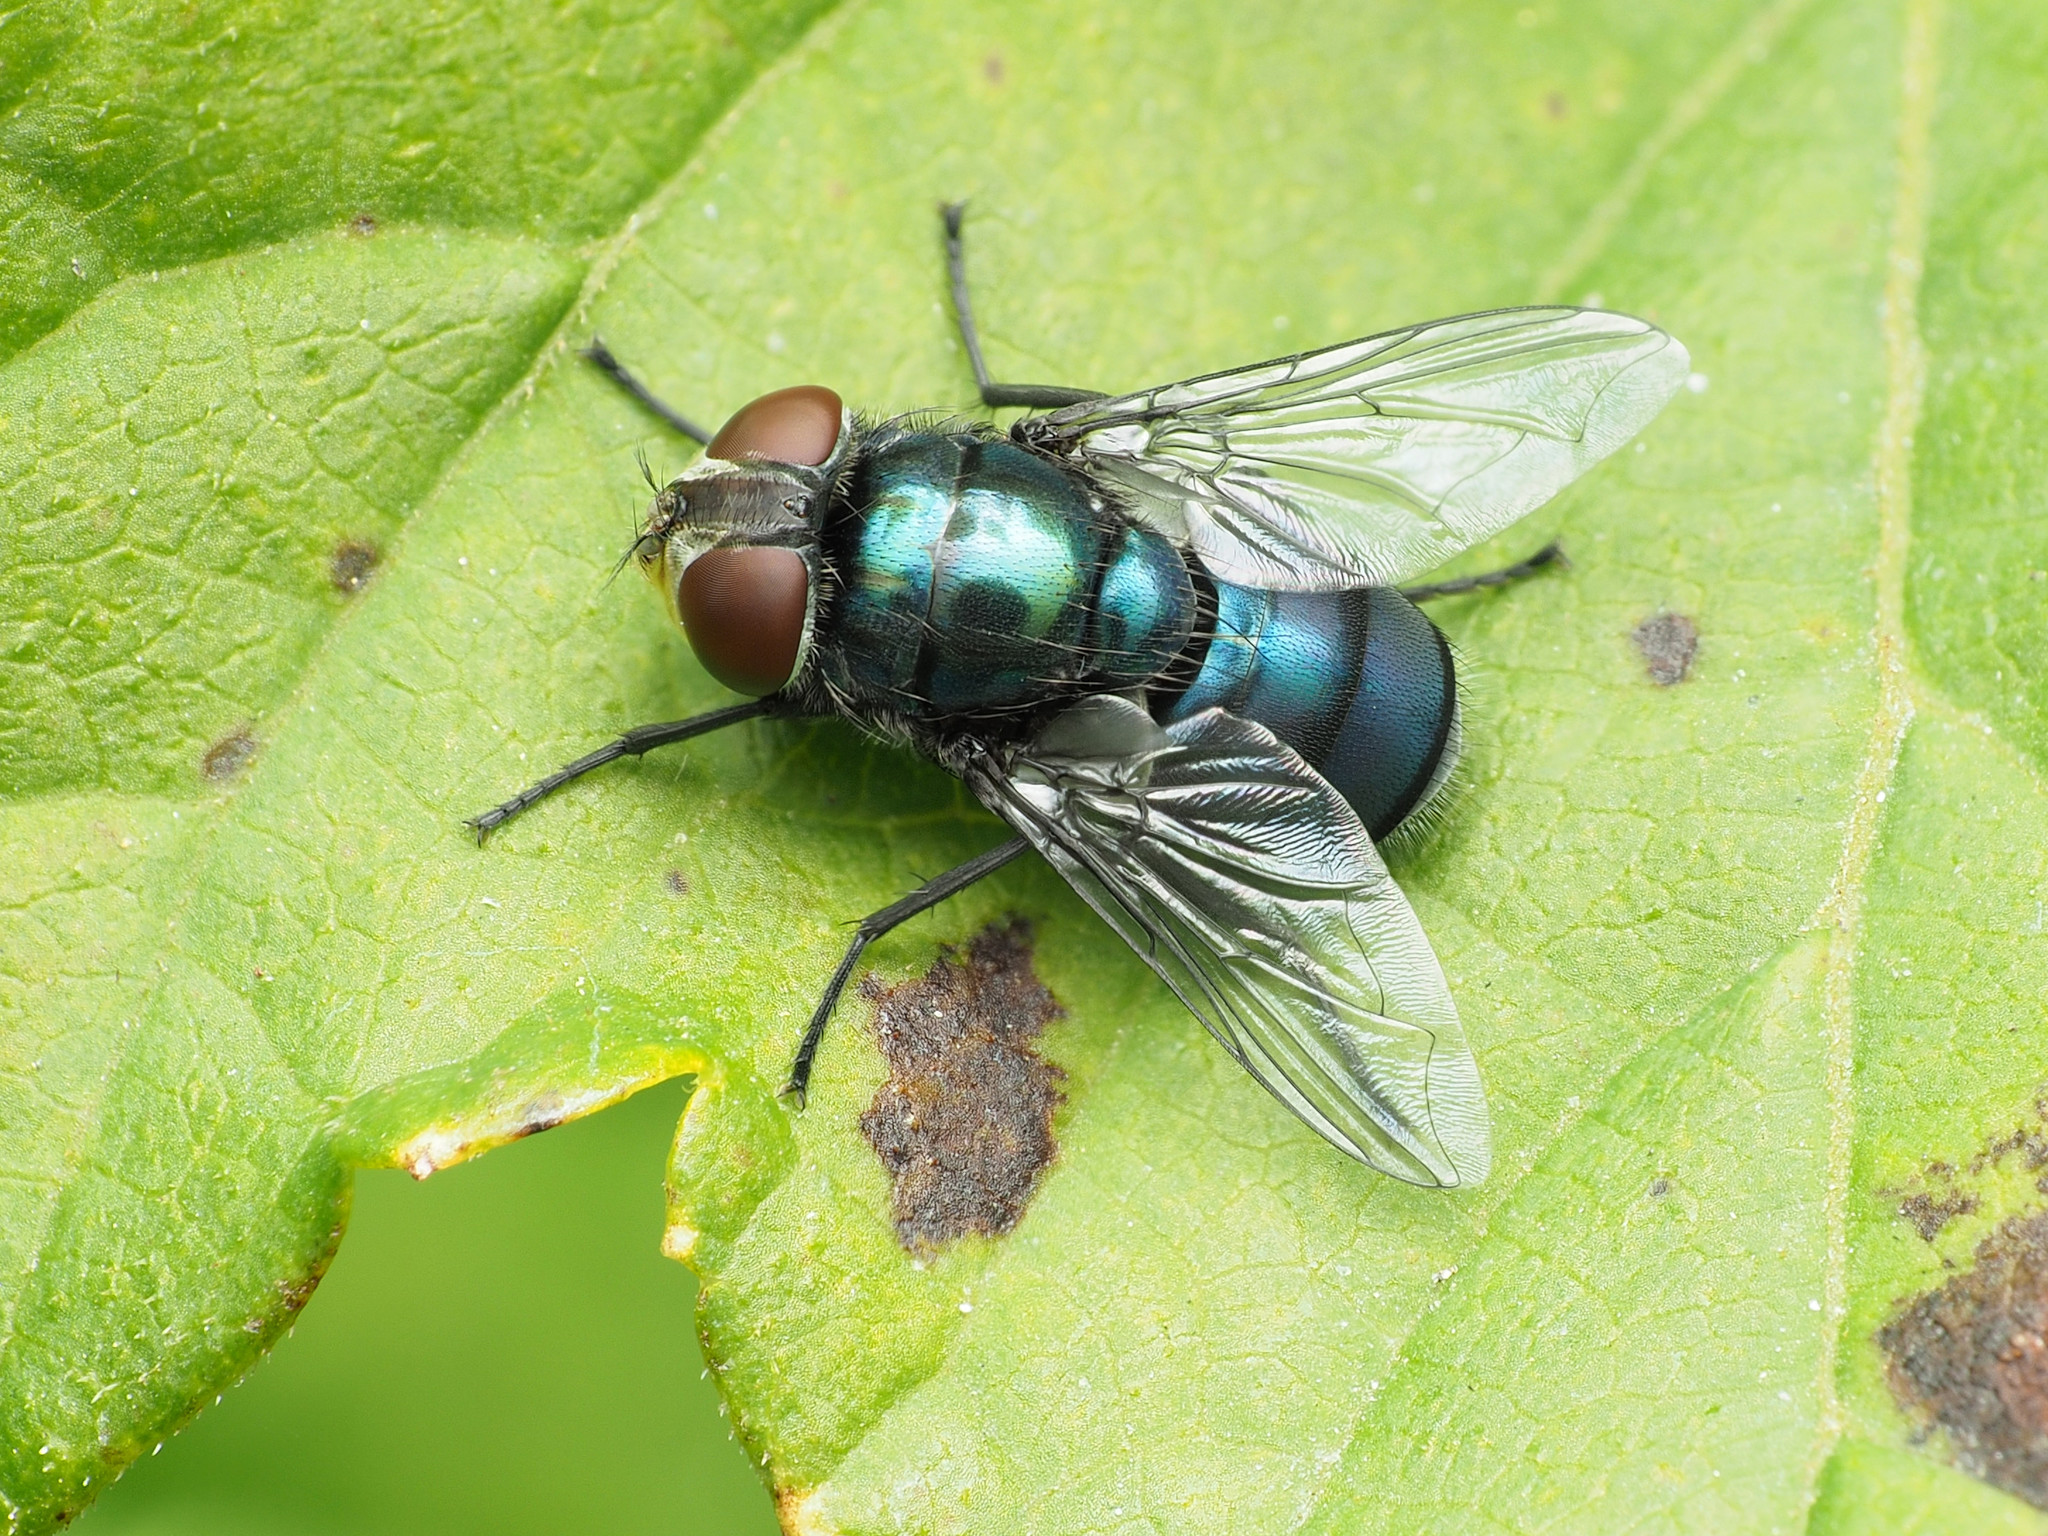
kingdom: Animalia
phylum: Arthropoda
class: Insecta
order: Diptera
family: Calliphoridae
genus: Chrysomya
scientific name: Chrysomya rufifacies
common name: Blow fly
